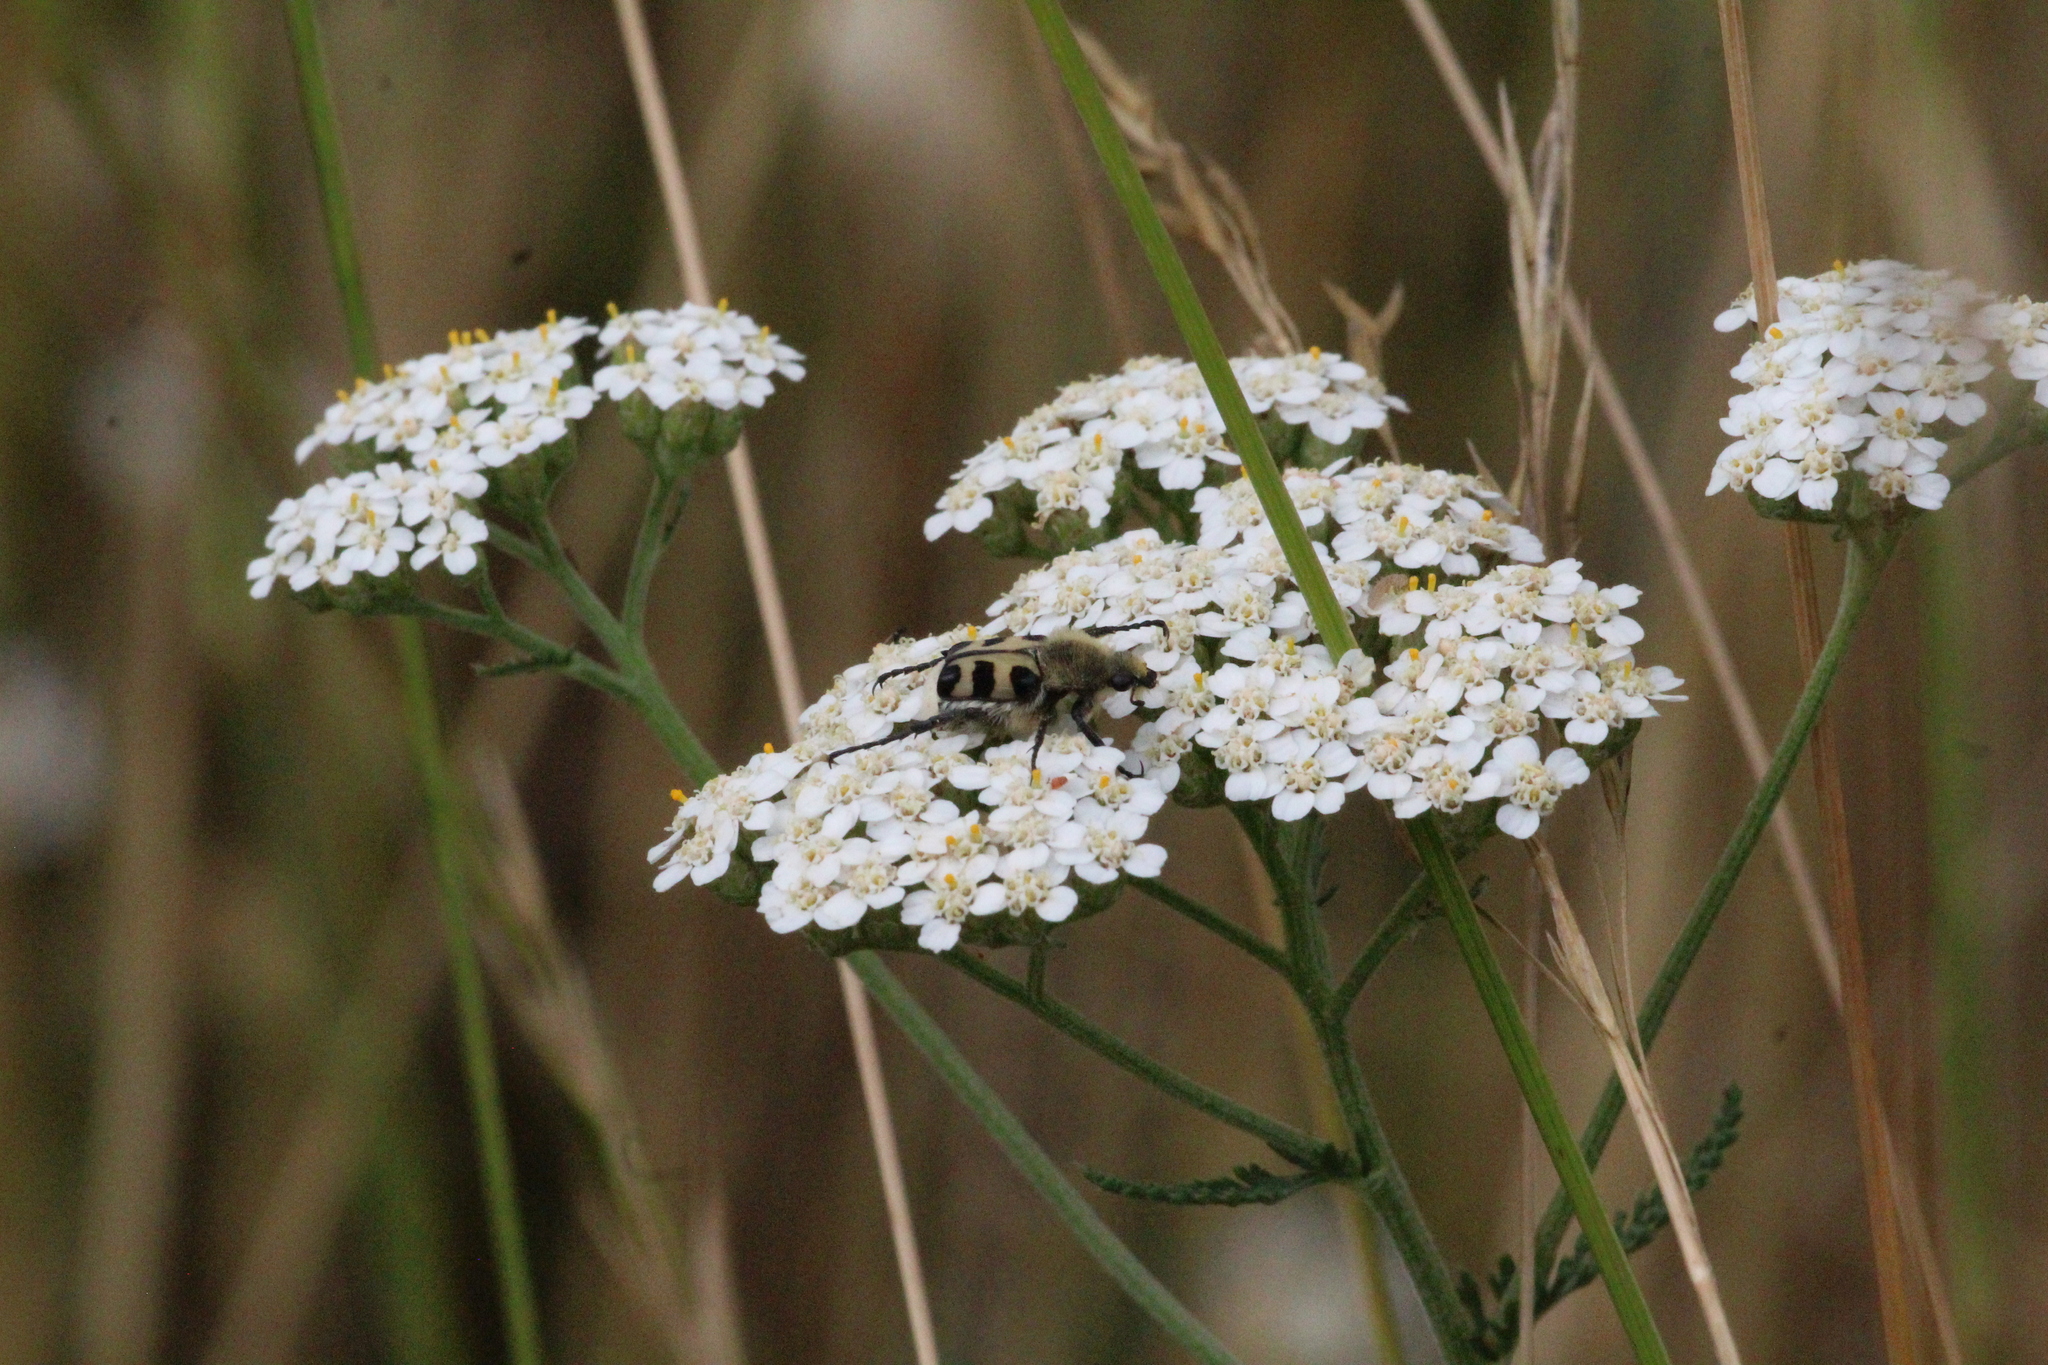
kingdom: Animalia
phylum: Arthropoda
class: Insecta
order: Coleoptera
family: Scarabaeidae
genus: Trichius
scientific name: Trichius gallicus
